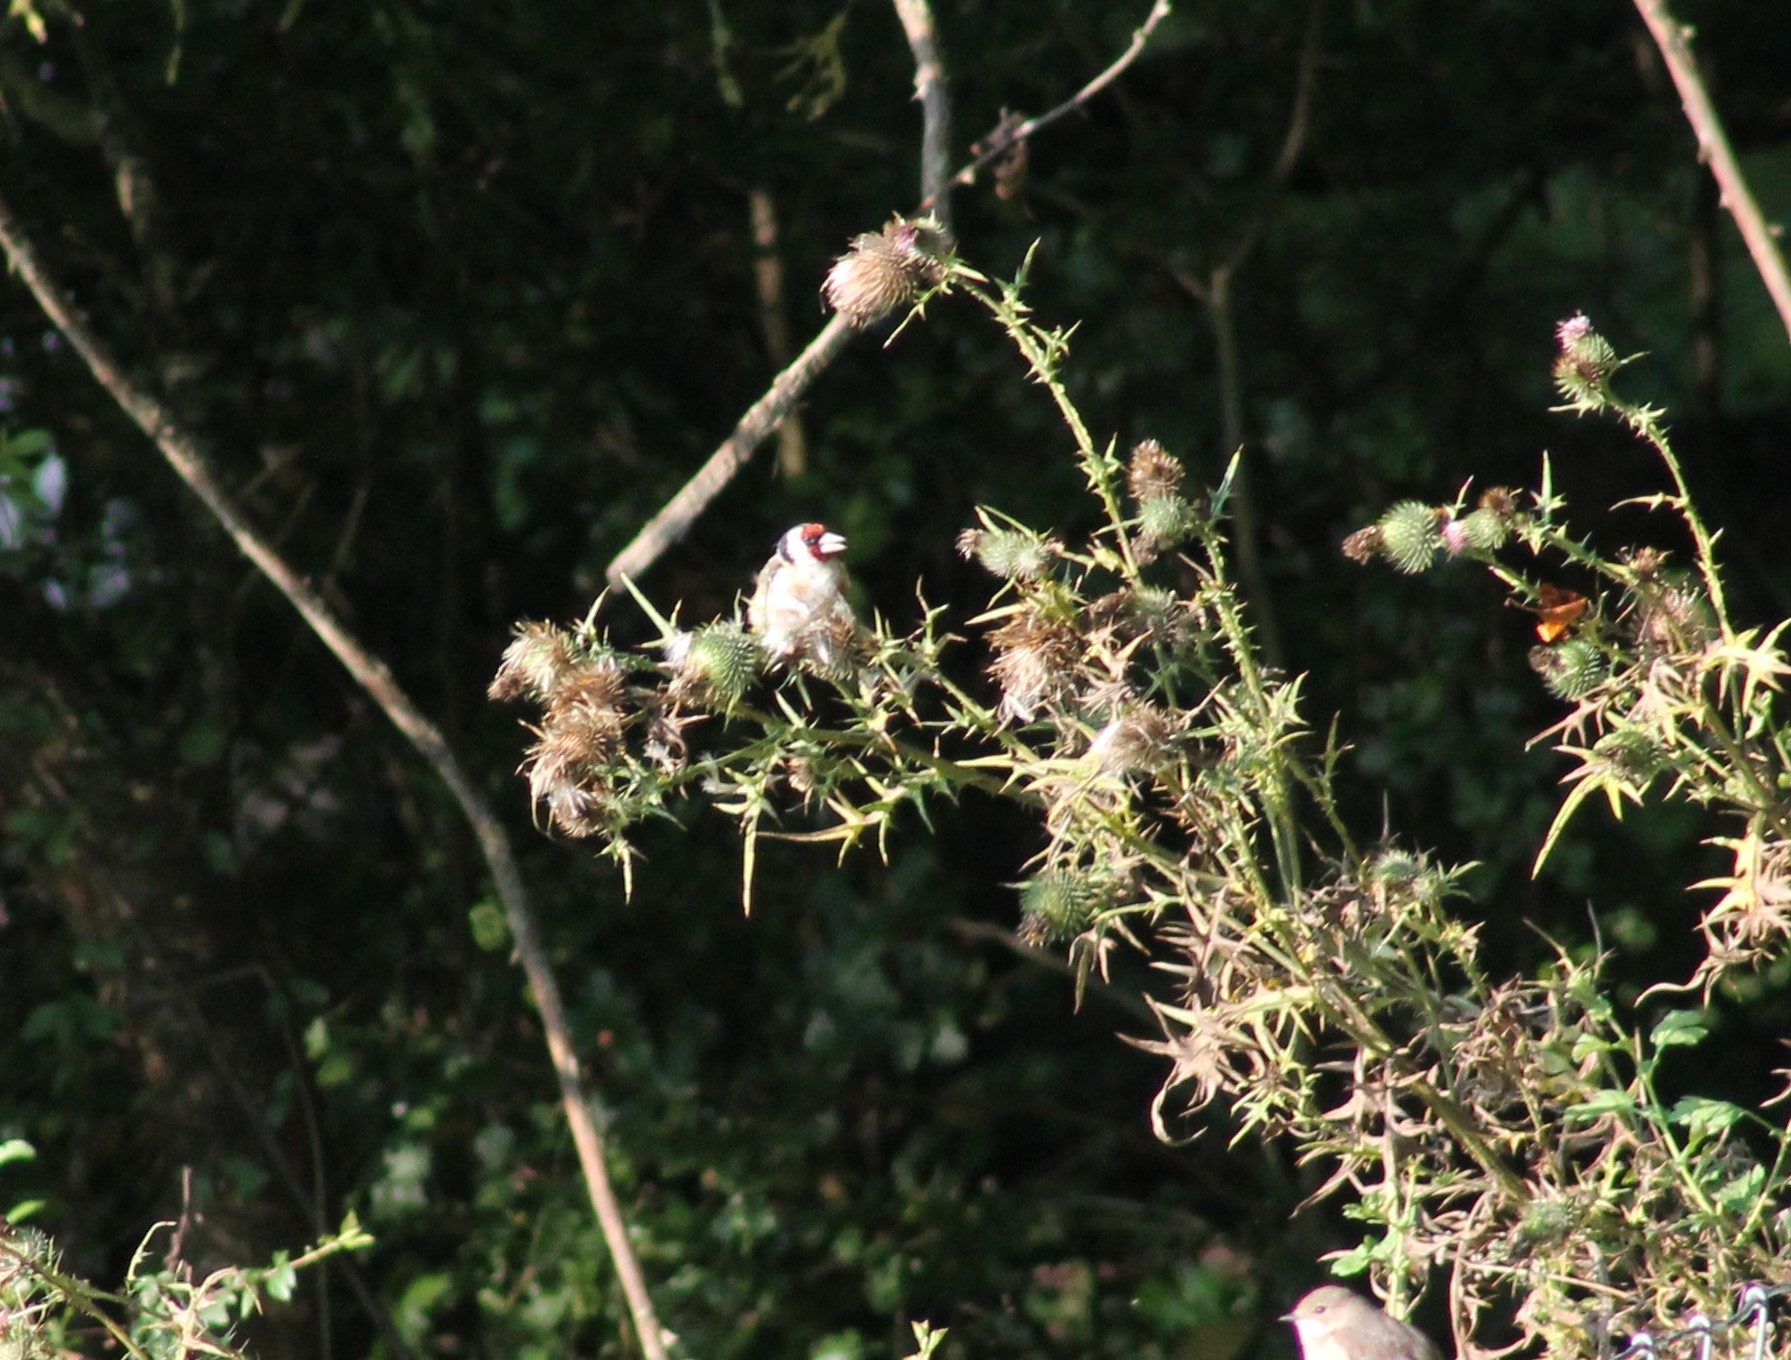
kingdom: Animalia
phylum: Chordata
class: Aves
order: Passeriformes
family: Fringillidae
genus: Carduelis
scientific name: Carduelis carduelis
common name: European goldfinch
